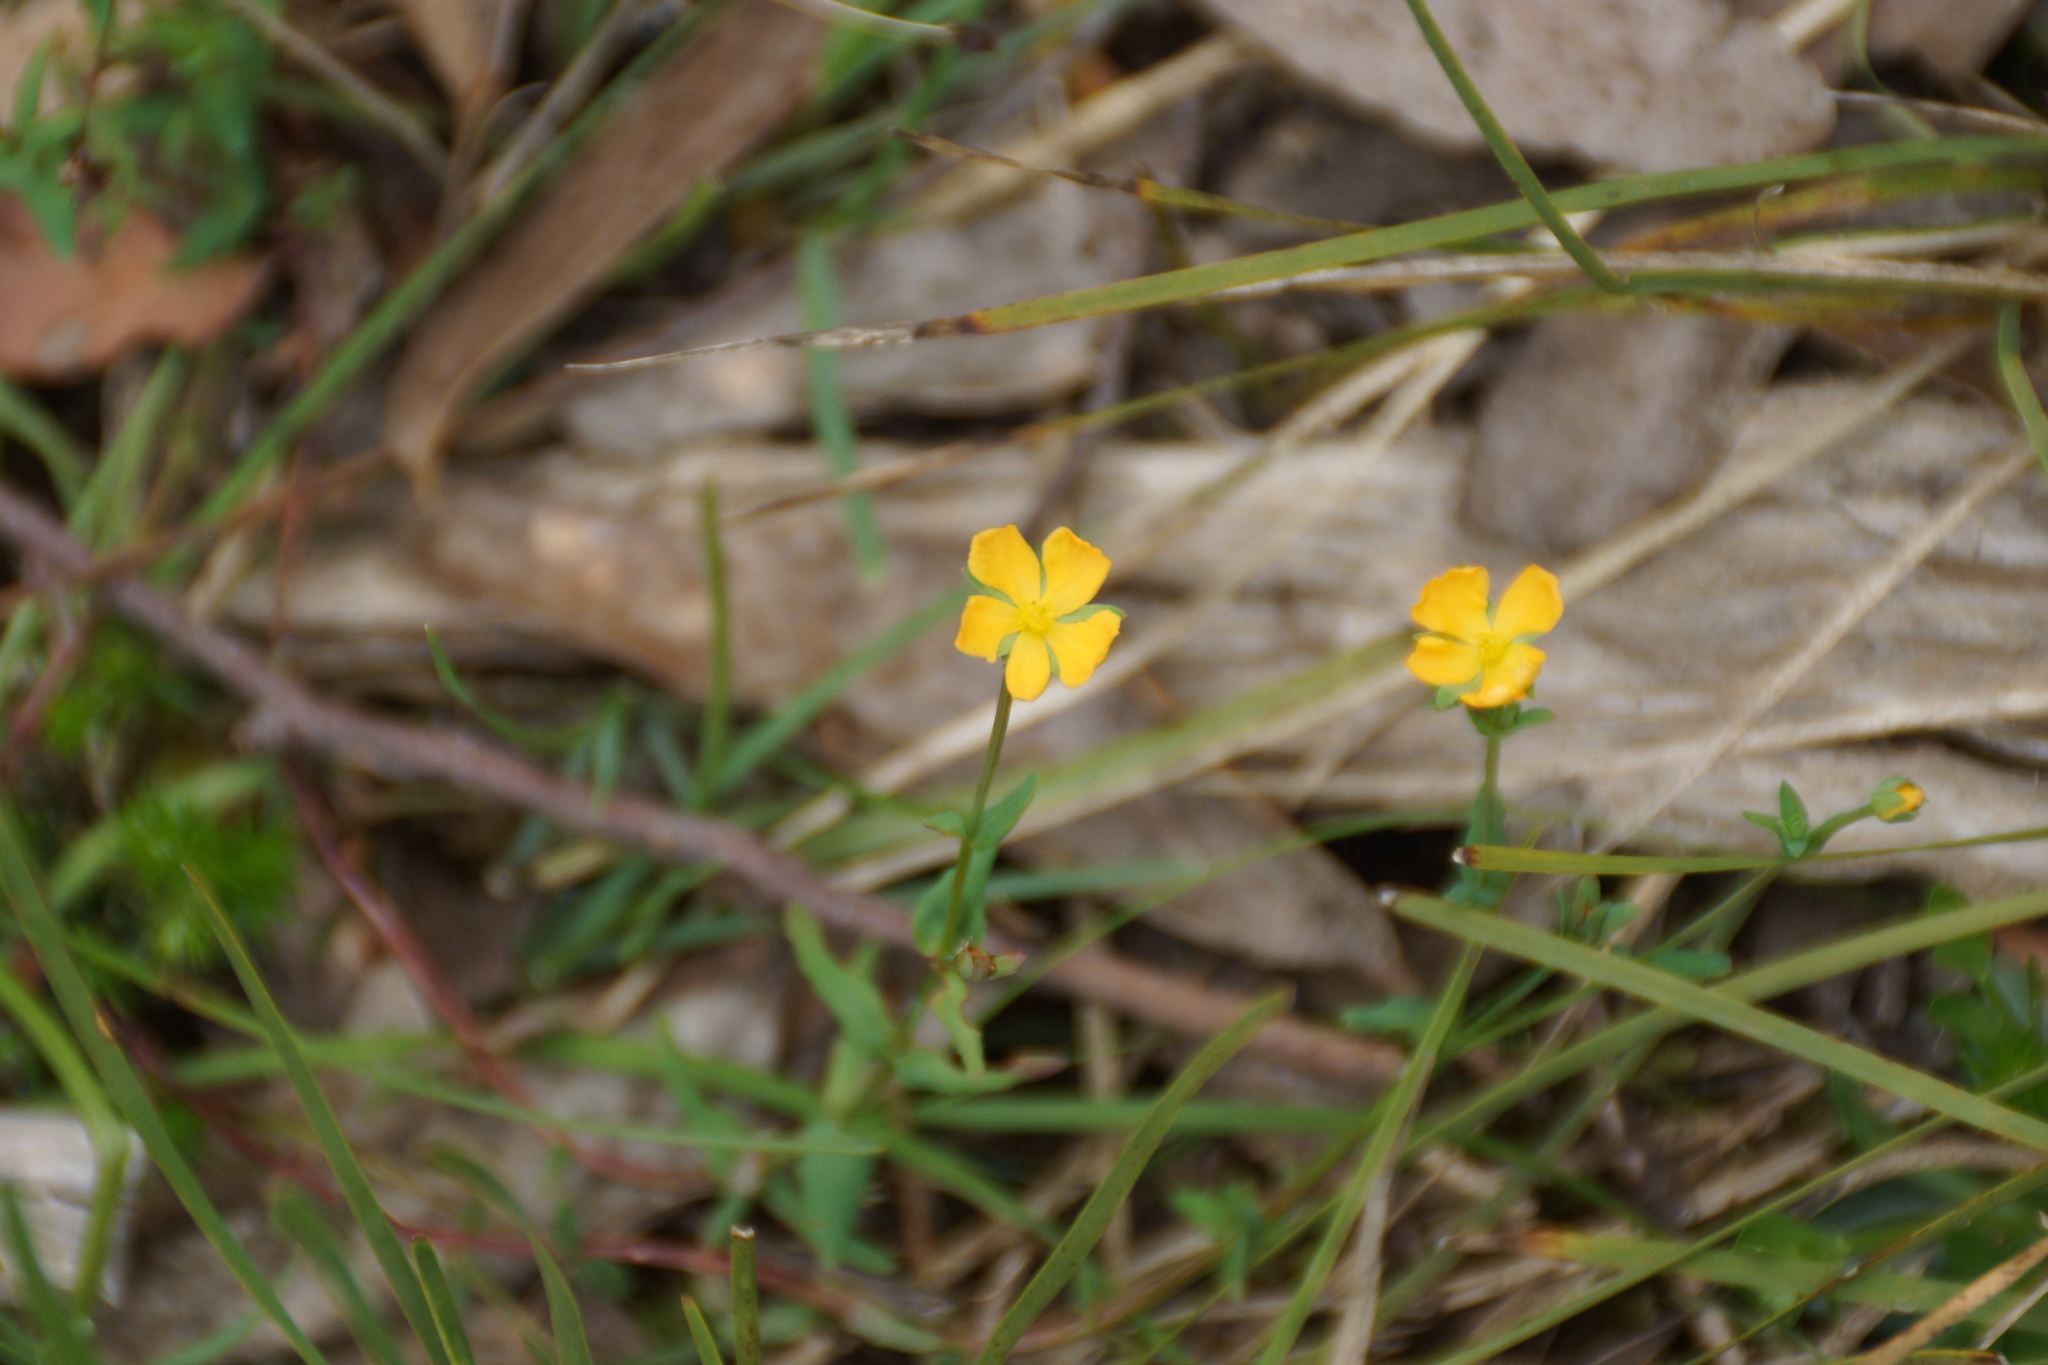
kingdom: Plantae
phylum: Tracheophyta
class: Magnoliopsida
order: Malpighiales
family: Hypericaceae
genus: Hypericum
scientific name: Hypericum gramineum
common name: Grassy st. johnswort
